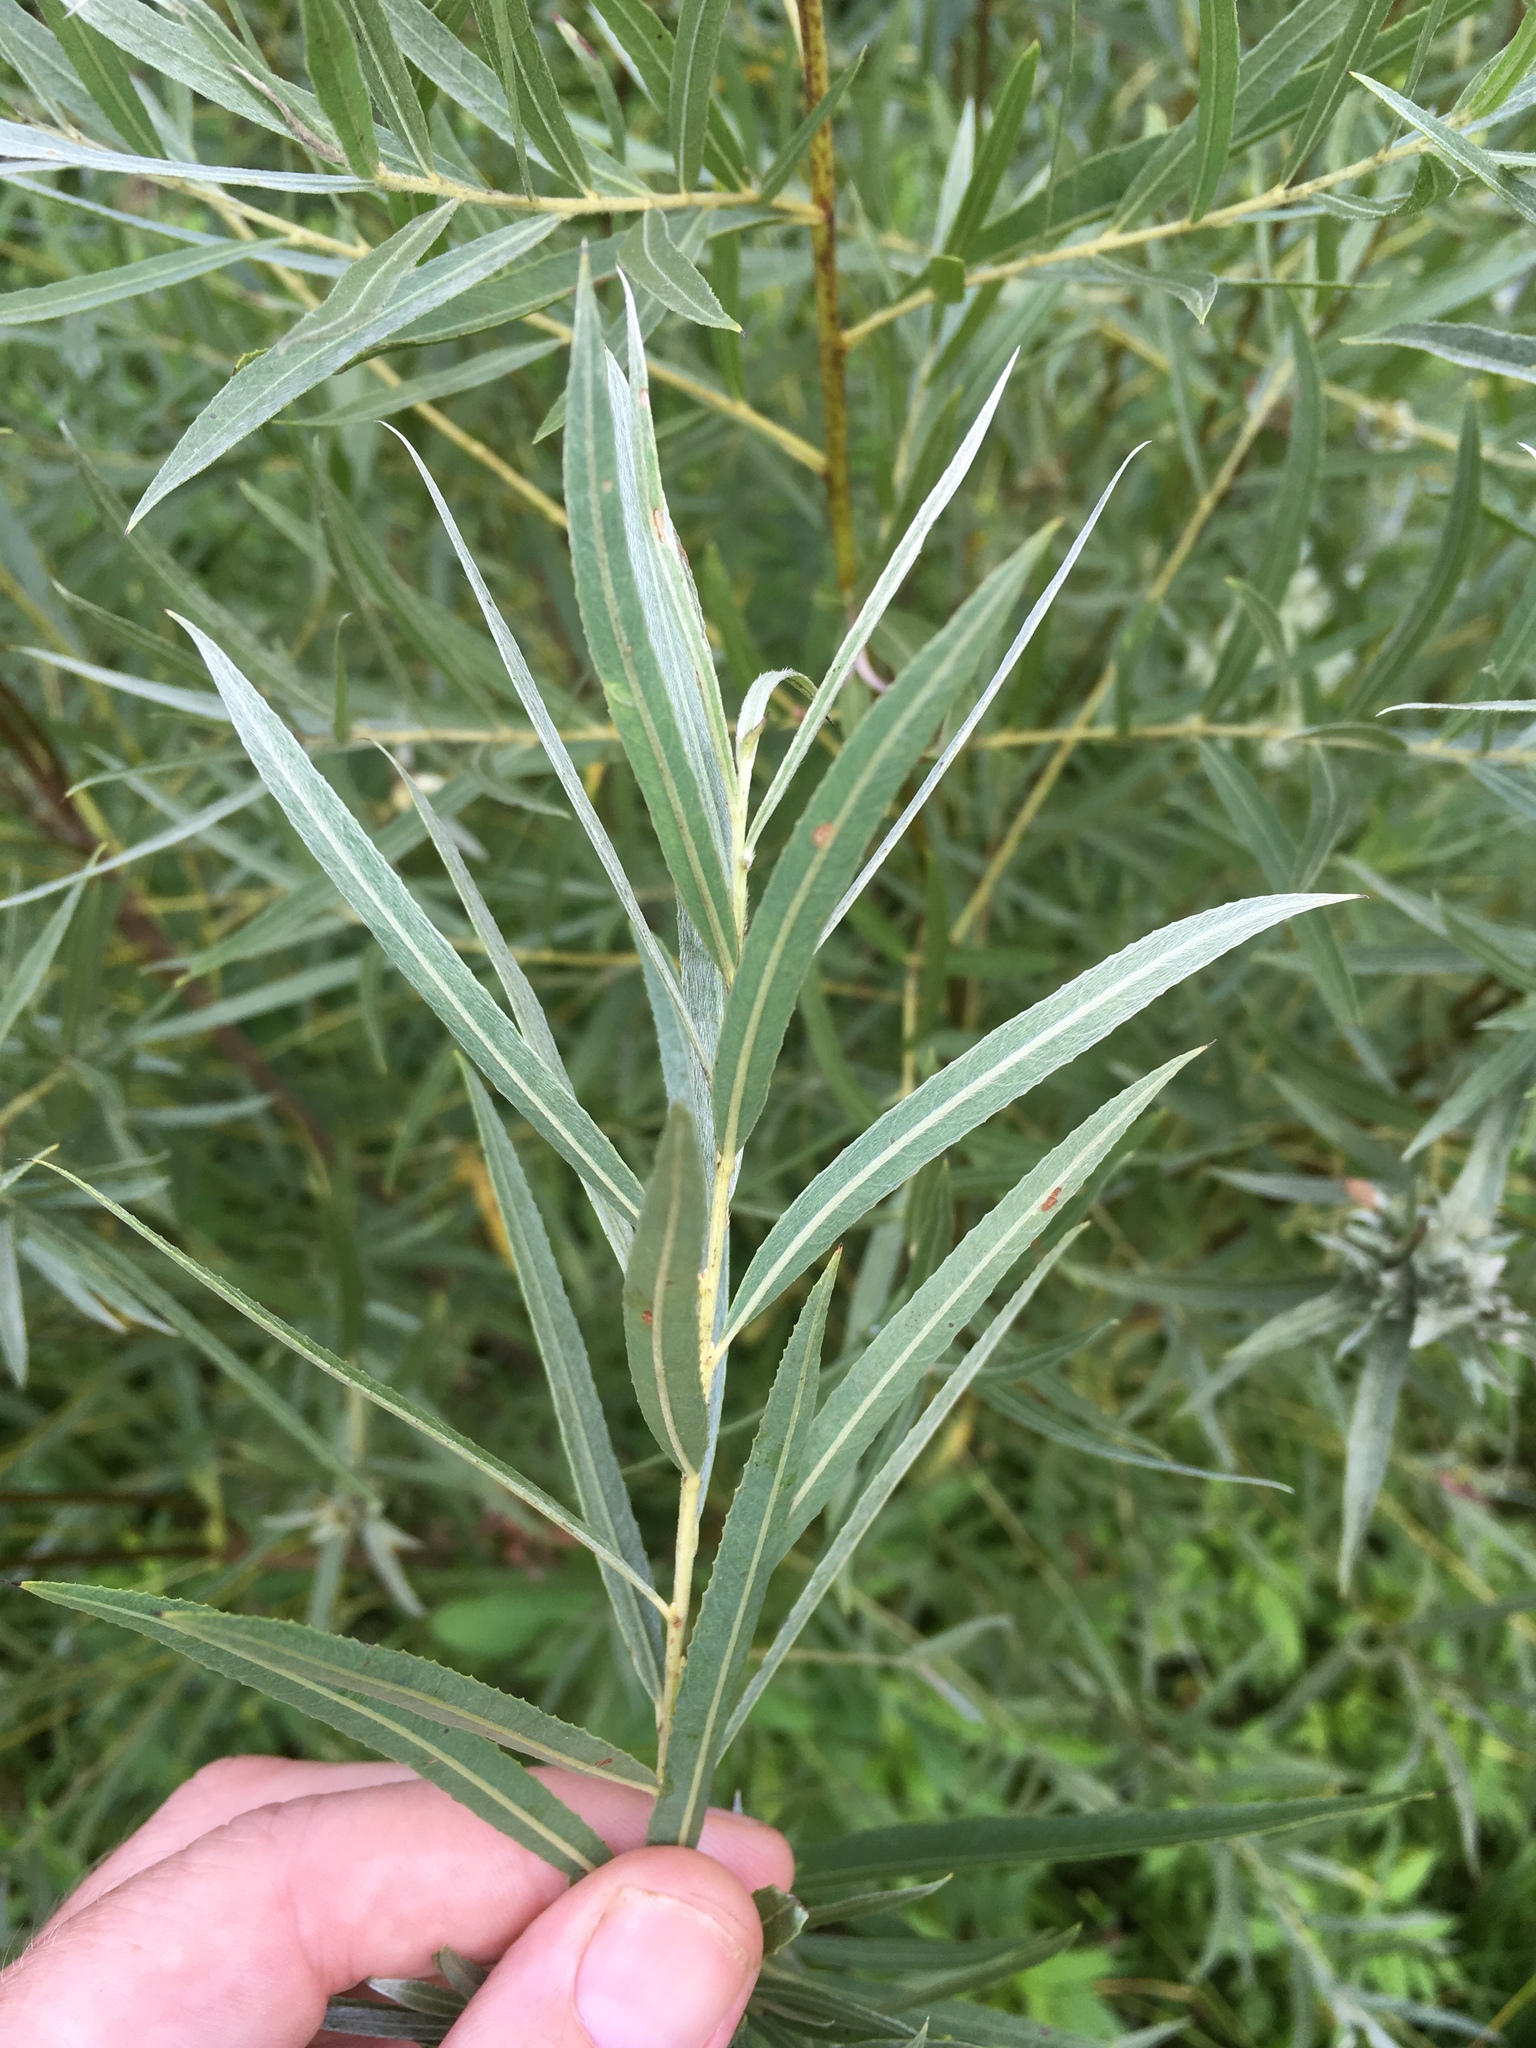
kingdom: Plantae
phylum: Tracheophyta
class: Magnoliopsida
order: Malpighiales
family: Salicaceae
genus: Salix
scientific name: Salix interior
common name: Sandbar willow
